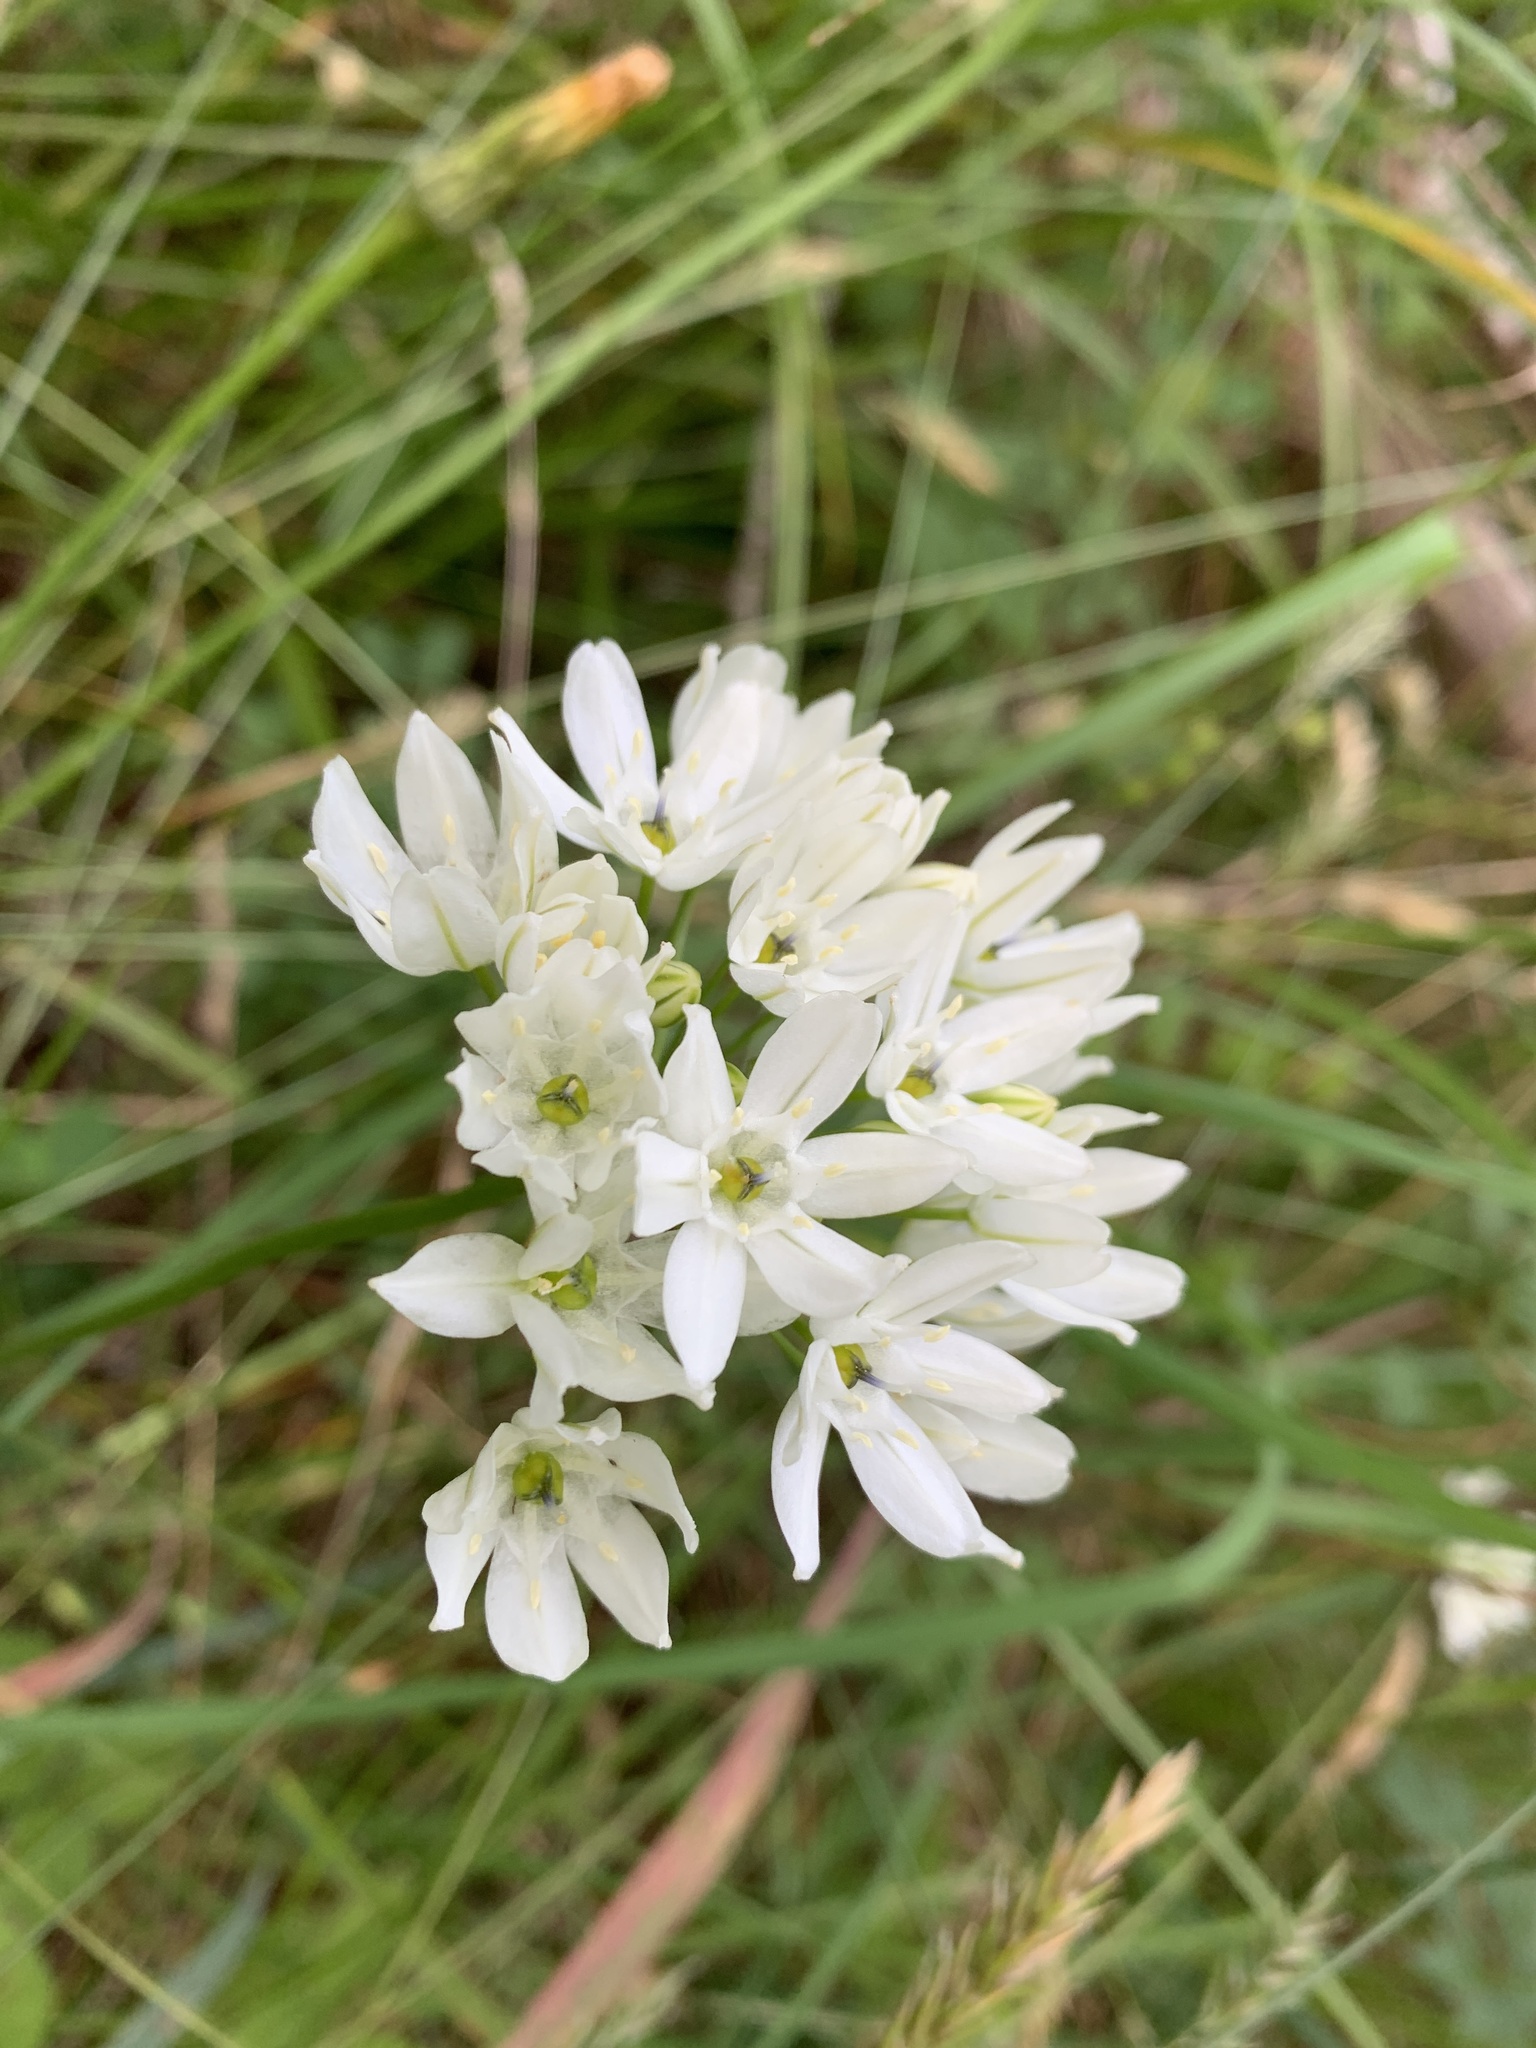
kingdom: Plantae
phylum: Tracheophyta
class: Liliopsida
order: Asparagales
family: Asparagaceae
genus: Triteleia
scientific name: Triteleia hyacinthina
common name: White brodiaea
